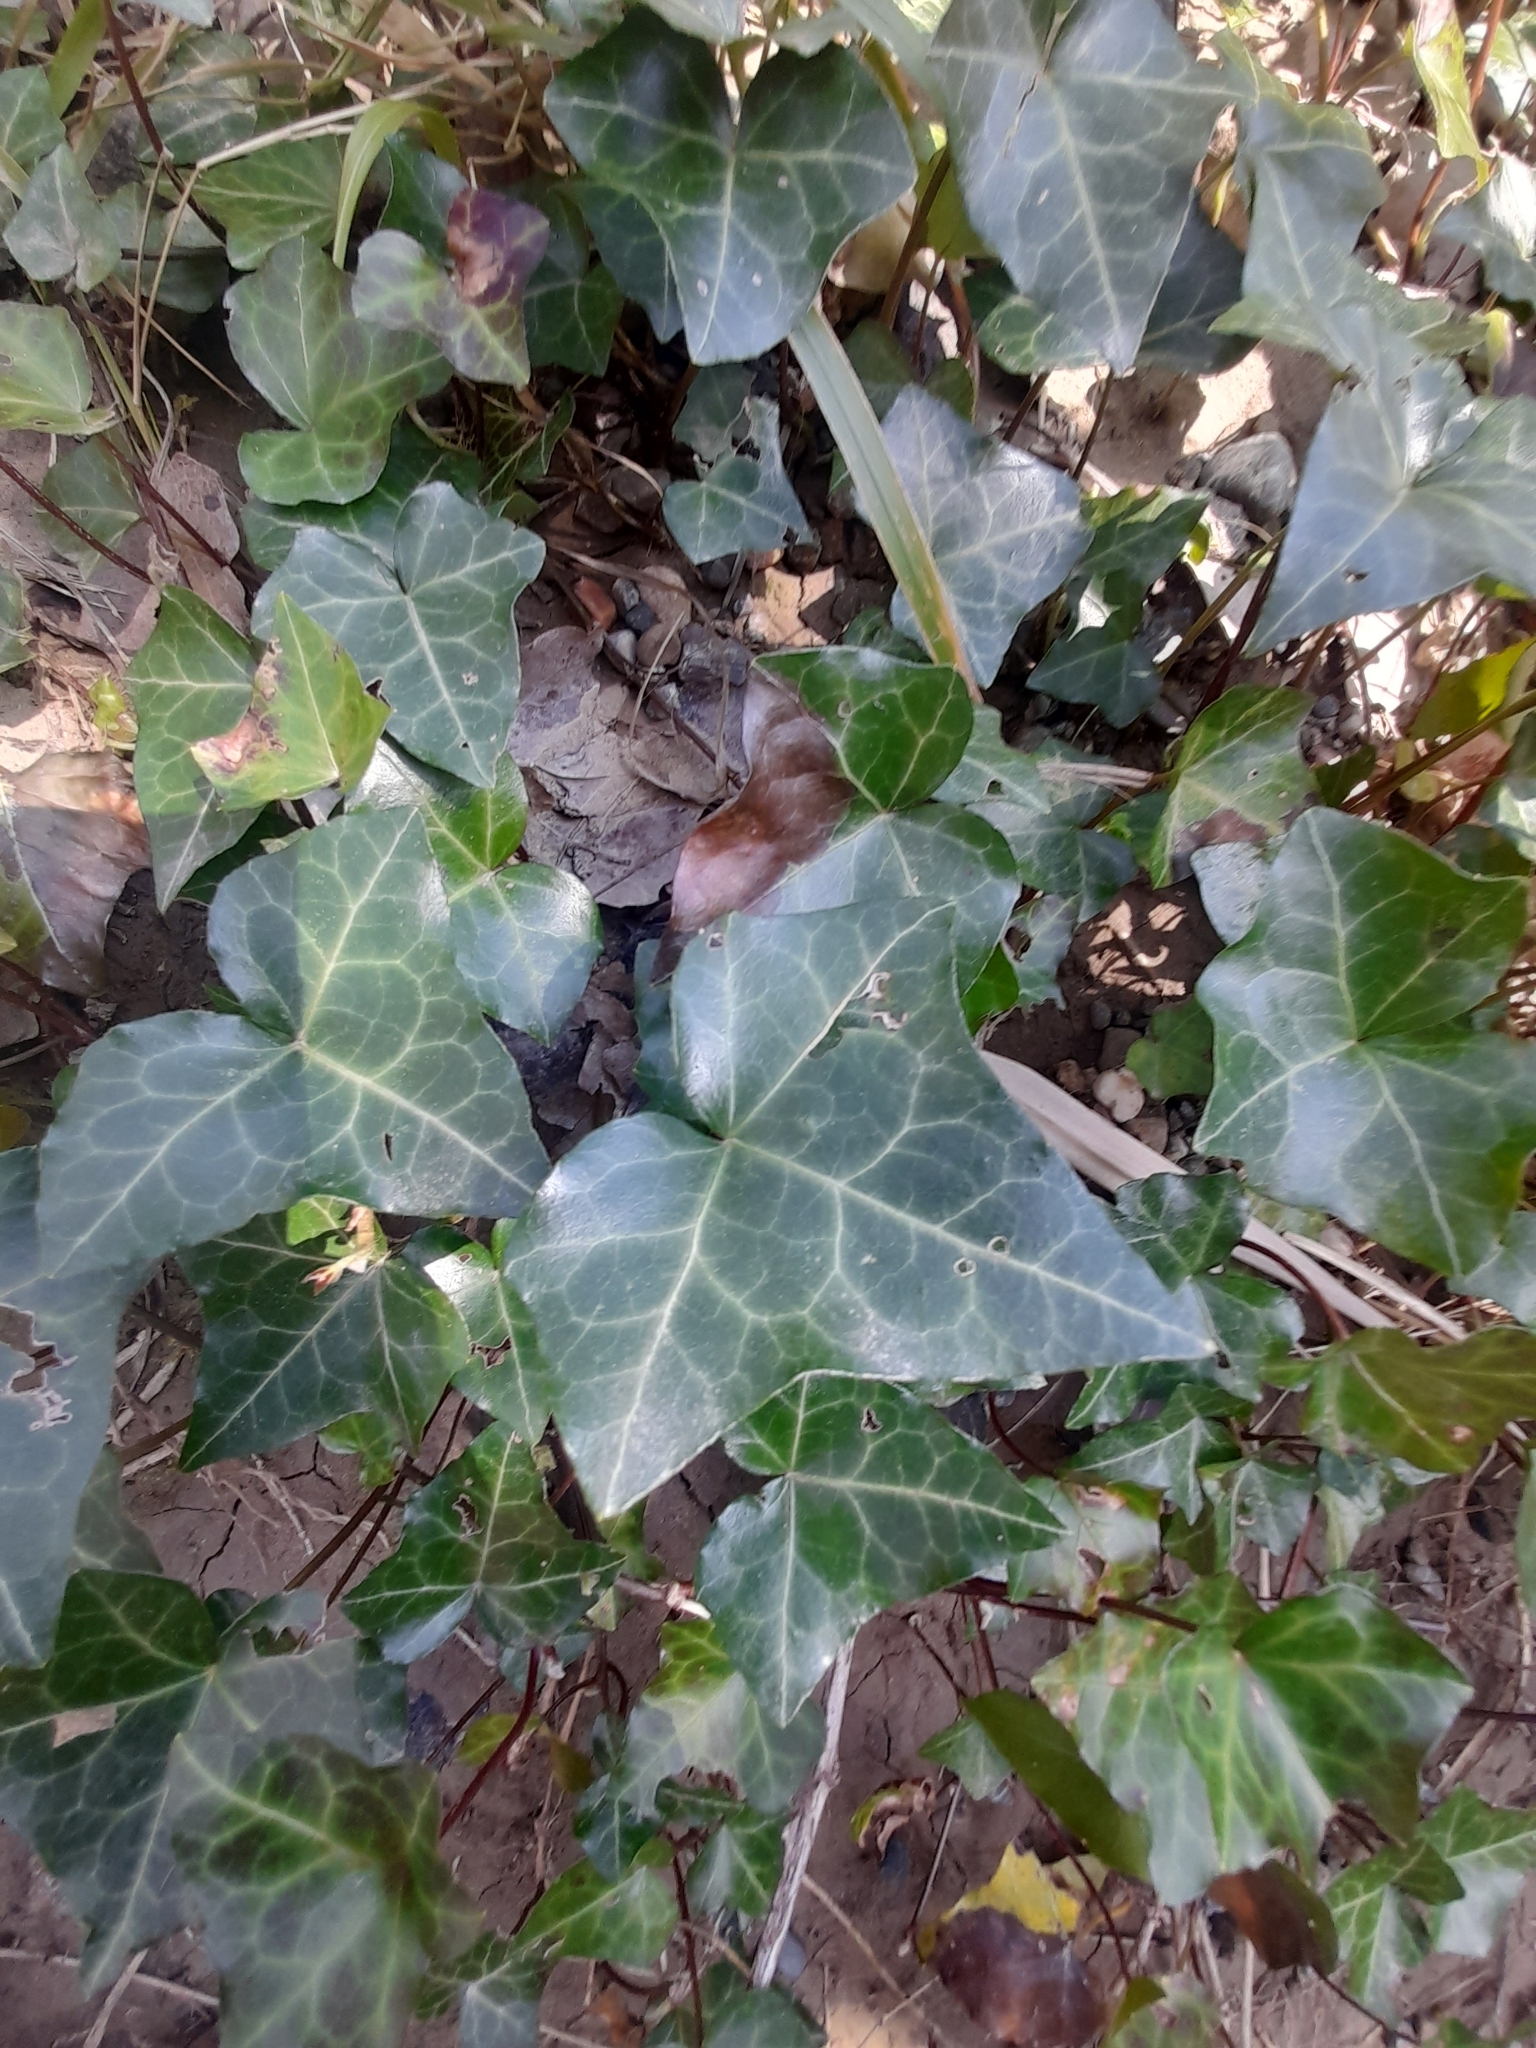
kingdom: Plantae
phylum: Tracheophyta
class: Magnoliopsida
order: Apiales
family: Araliaceae
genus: Hedera
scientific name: Hedera helix
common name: Ivy
